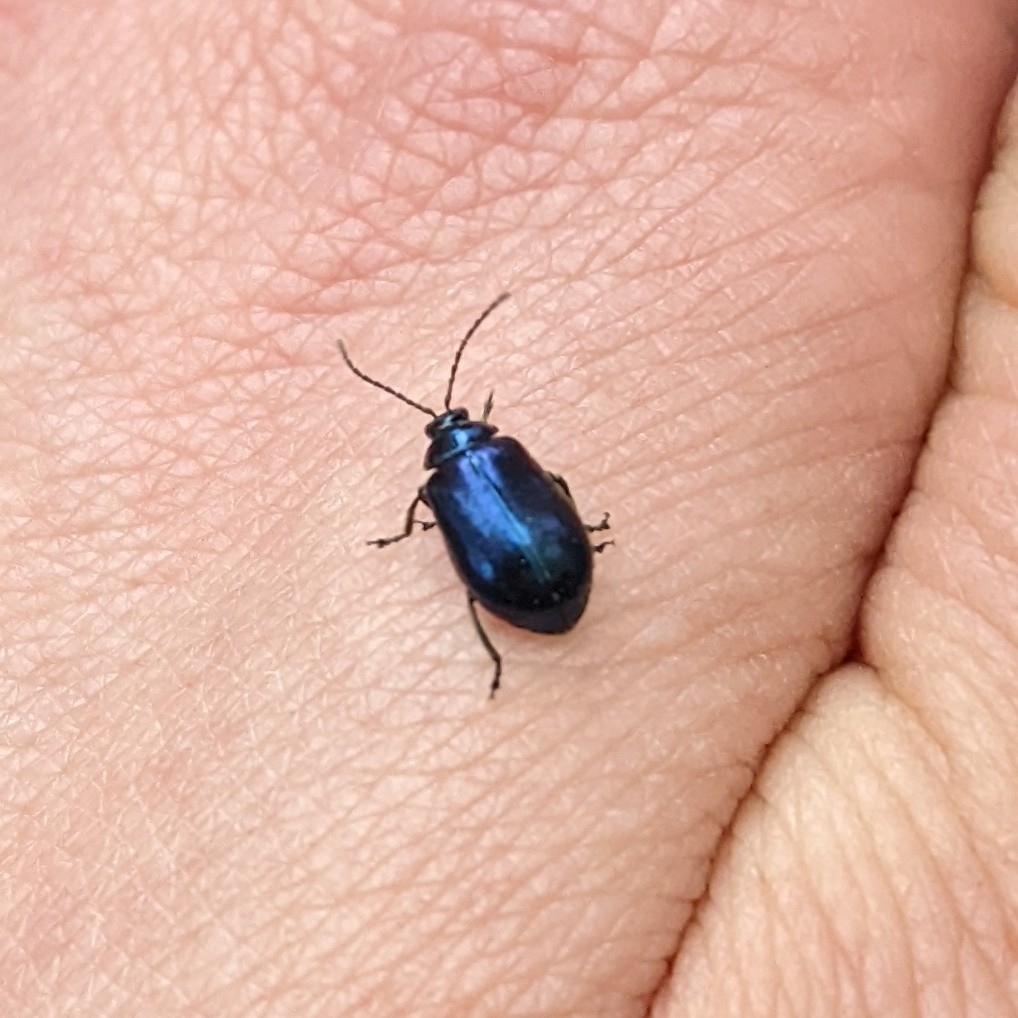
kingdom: Animalia
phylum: Arthropoda
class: Insecta
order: Coleoptera
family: Chrysomelidae
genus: Agelastica
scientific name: Agelastica alni
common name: Alder leaf beetle
